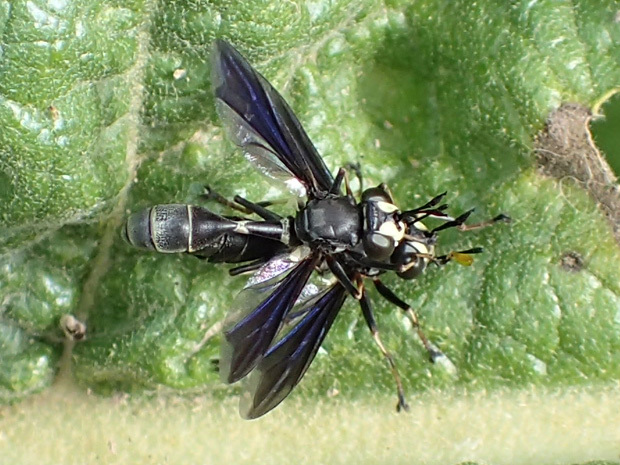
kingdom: Animalia
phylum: Arthropoda
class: Insecta
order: Diptera
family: Conopidae
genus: Physocephala
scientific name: Physocephala tibialis
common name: Common eastern physocephala
